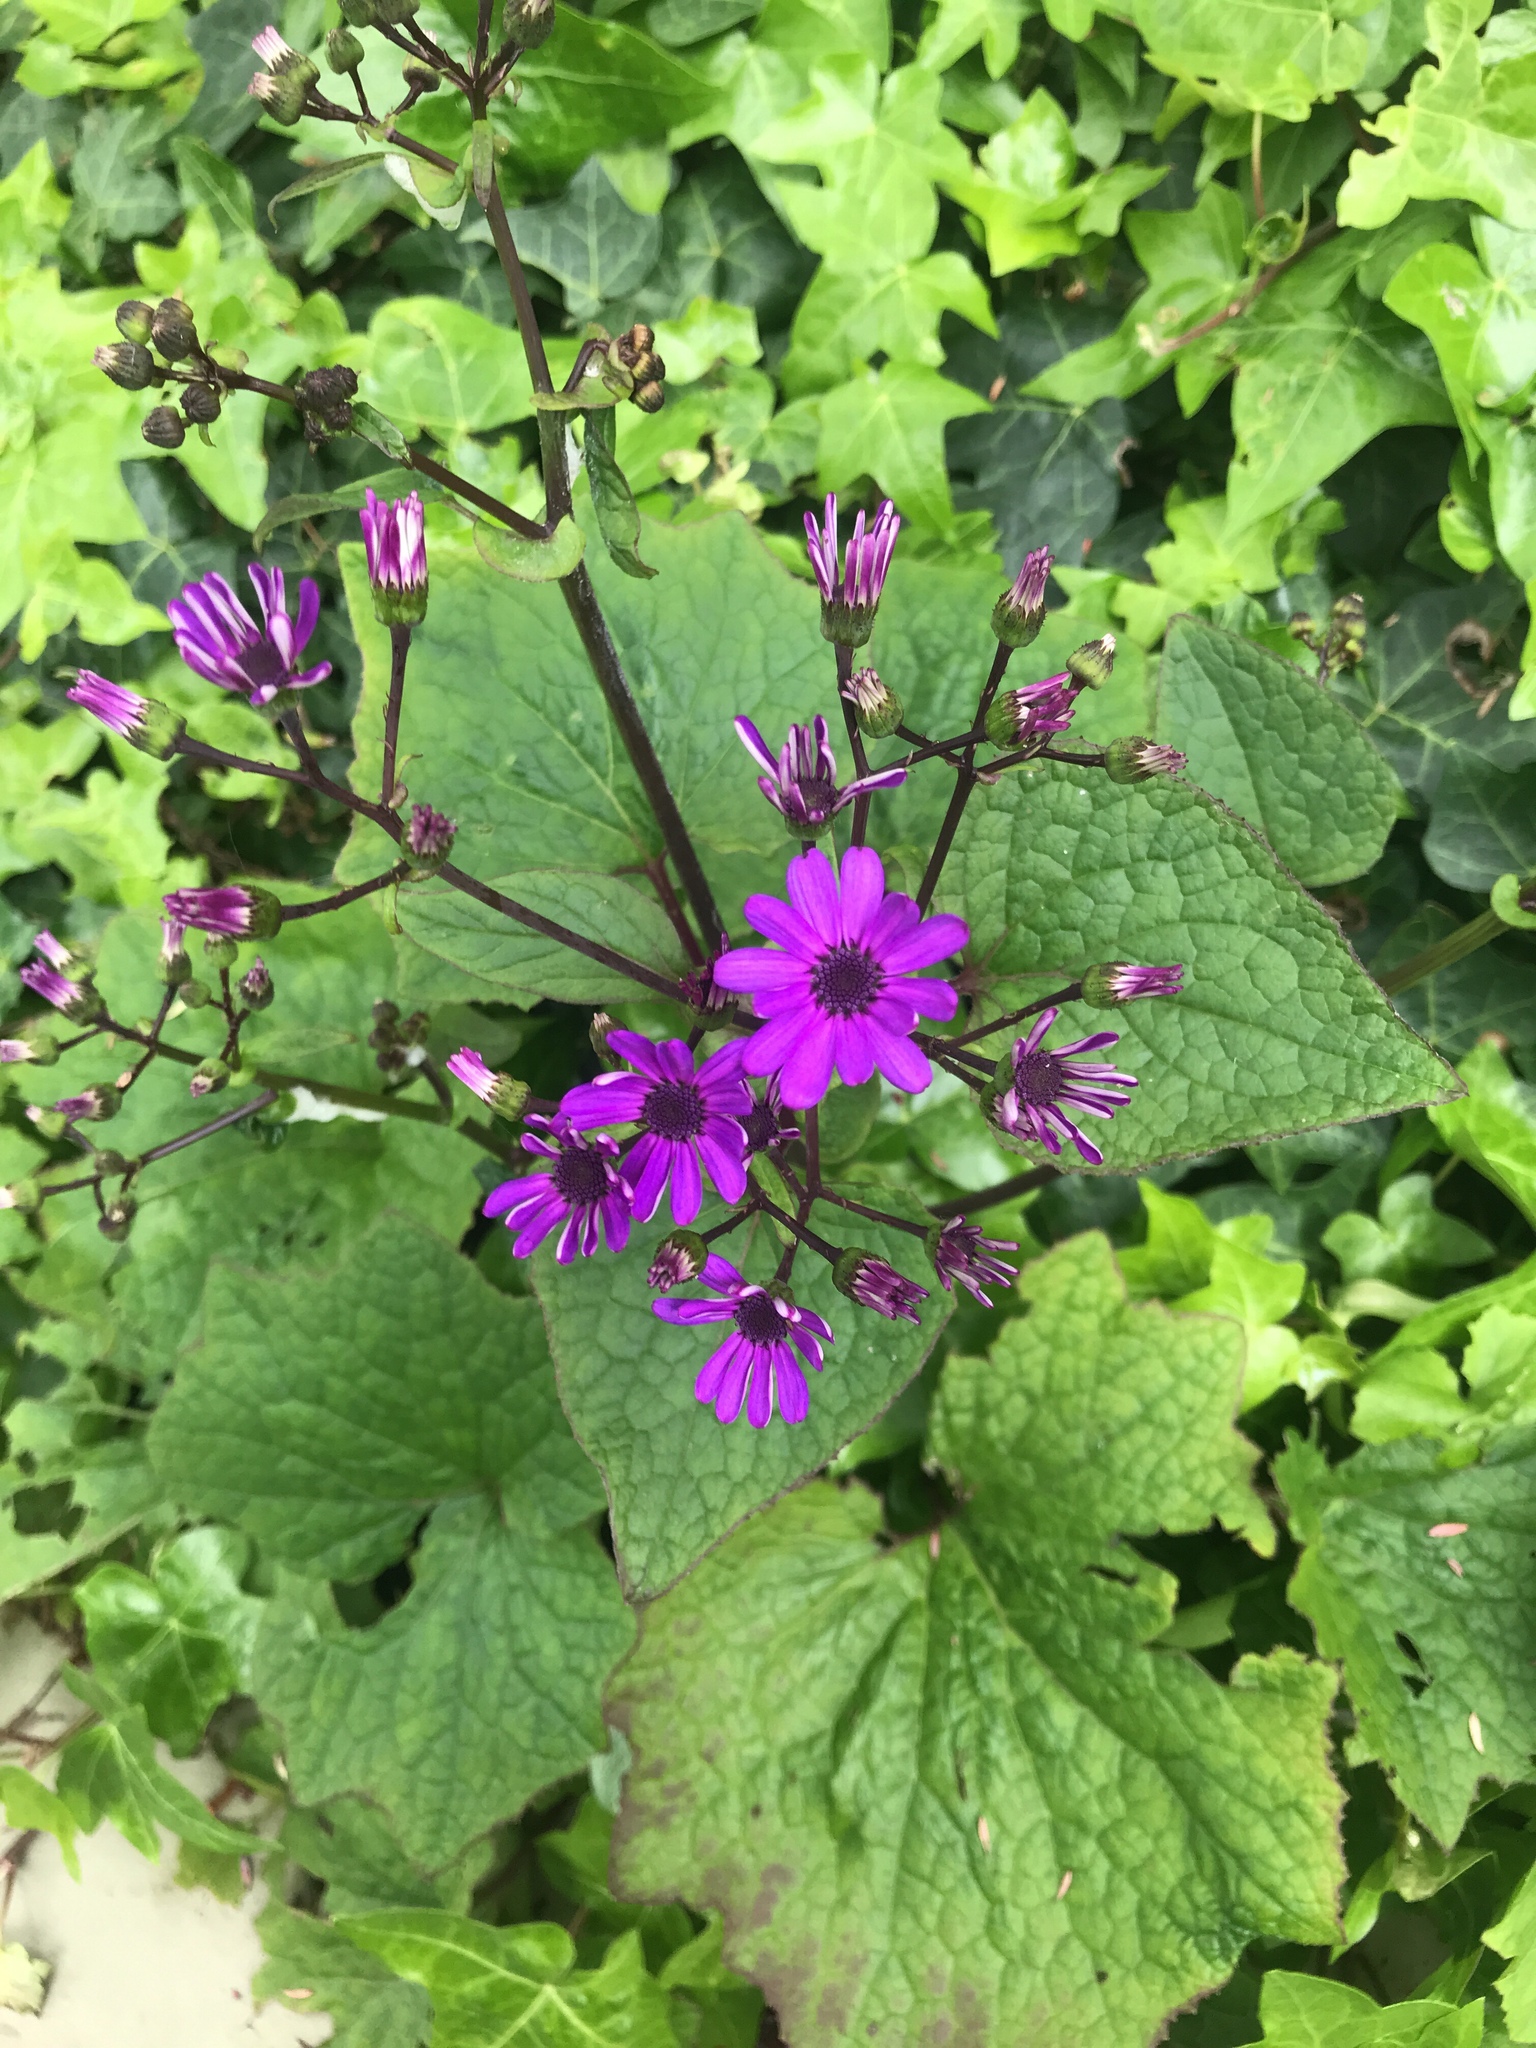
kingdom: Plantae
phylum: Tracheophyta
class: Magnoliopsida
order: Asterales
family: Asteraceae
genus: Pericallis
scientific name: Pericallis hybrida
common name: Cineraria
